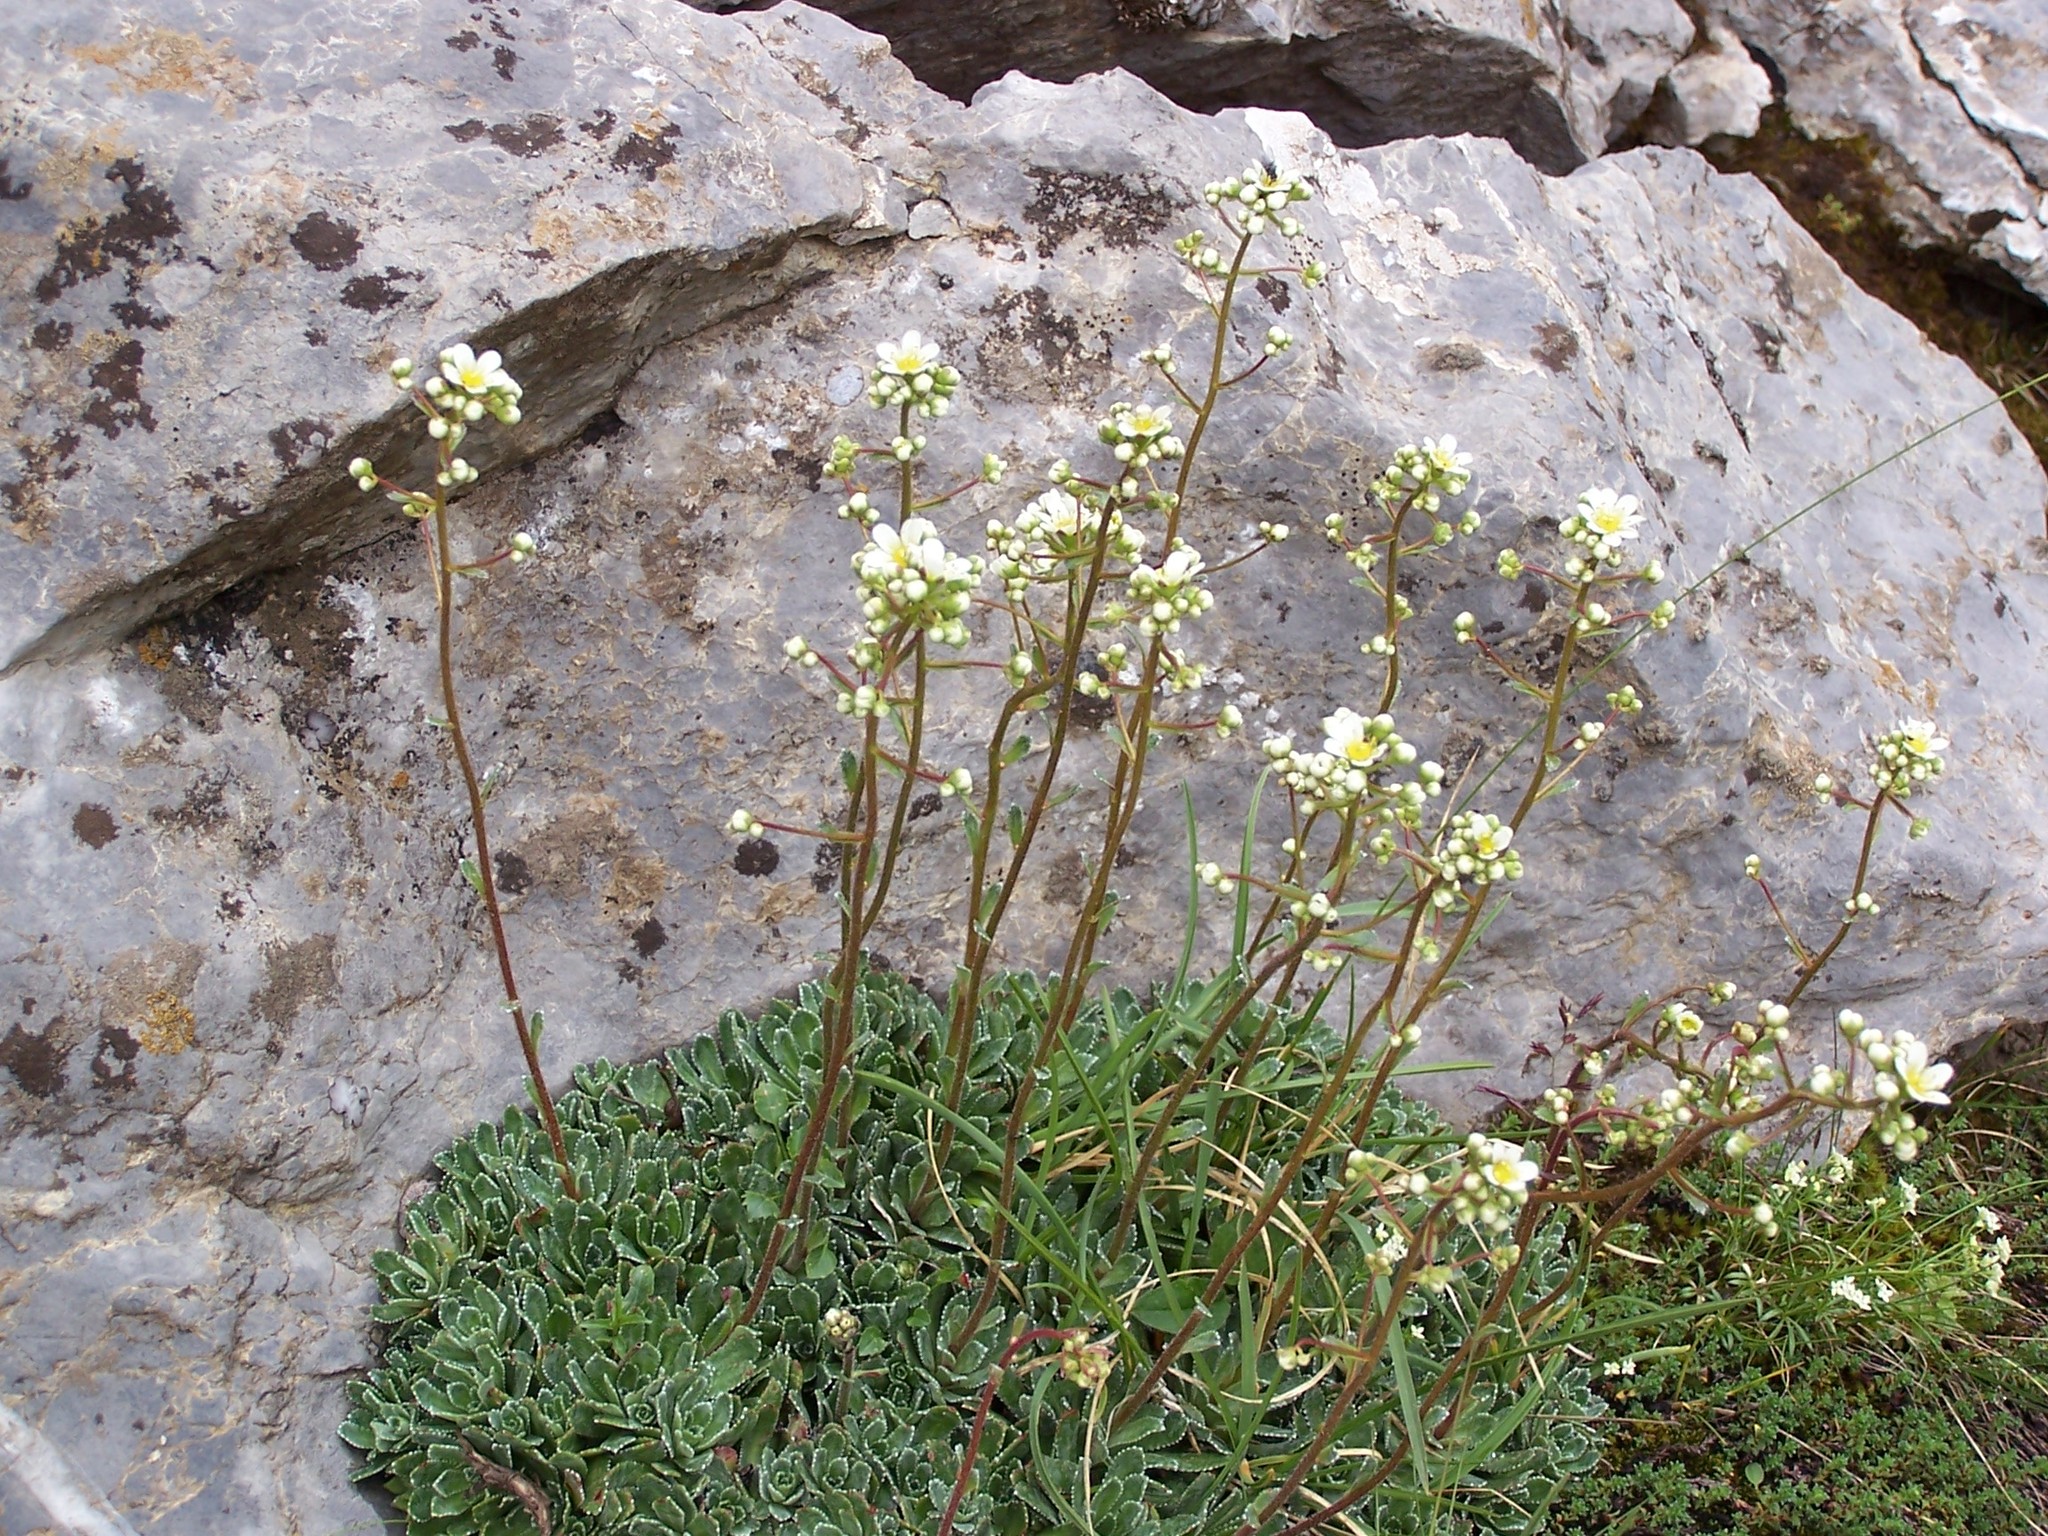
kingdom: Plantae
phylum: Tracheophyta
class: Magnoliopsida
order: Saxifragales
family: Saxifragaceae
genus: Saxifraga
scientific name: Saxifraga paniculata
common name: Livelong saxifrage
